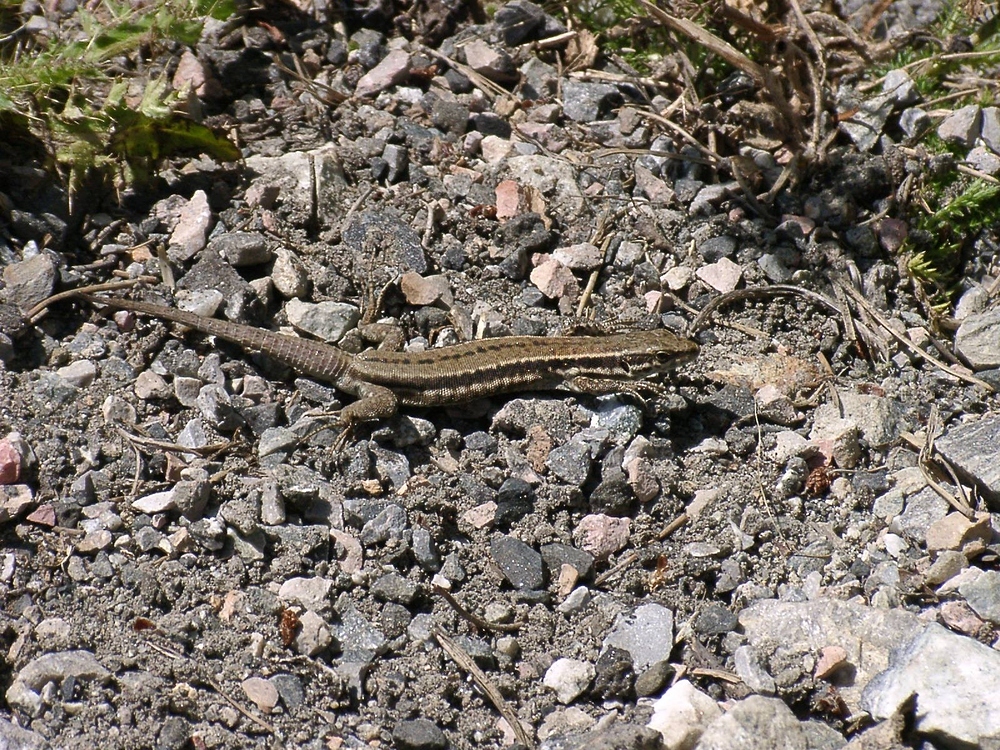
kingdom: Animalia
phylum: Chordata
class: Squamata
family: Lacertidae
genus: Podarcis
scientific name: Podarcis muralis
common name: Common wall lizard
